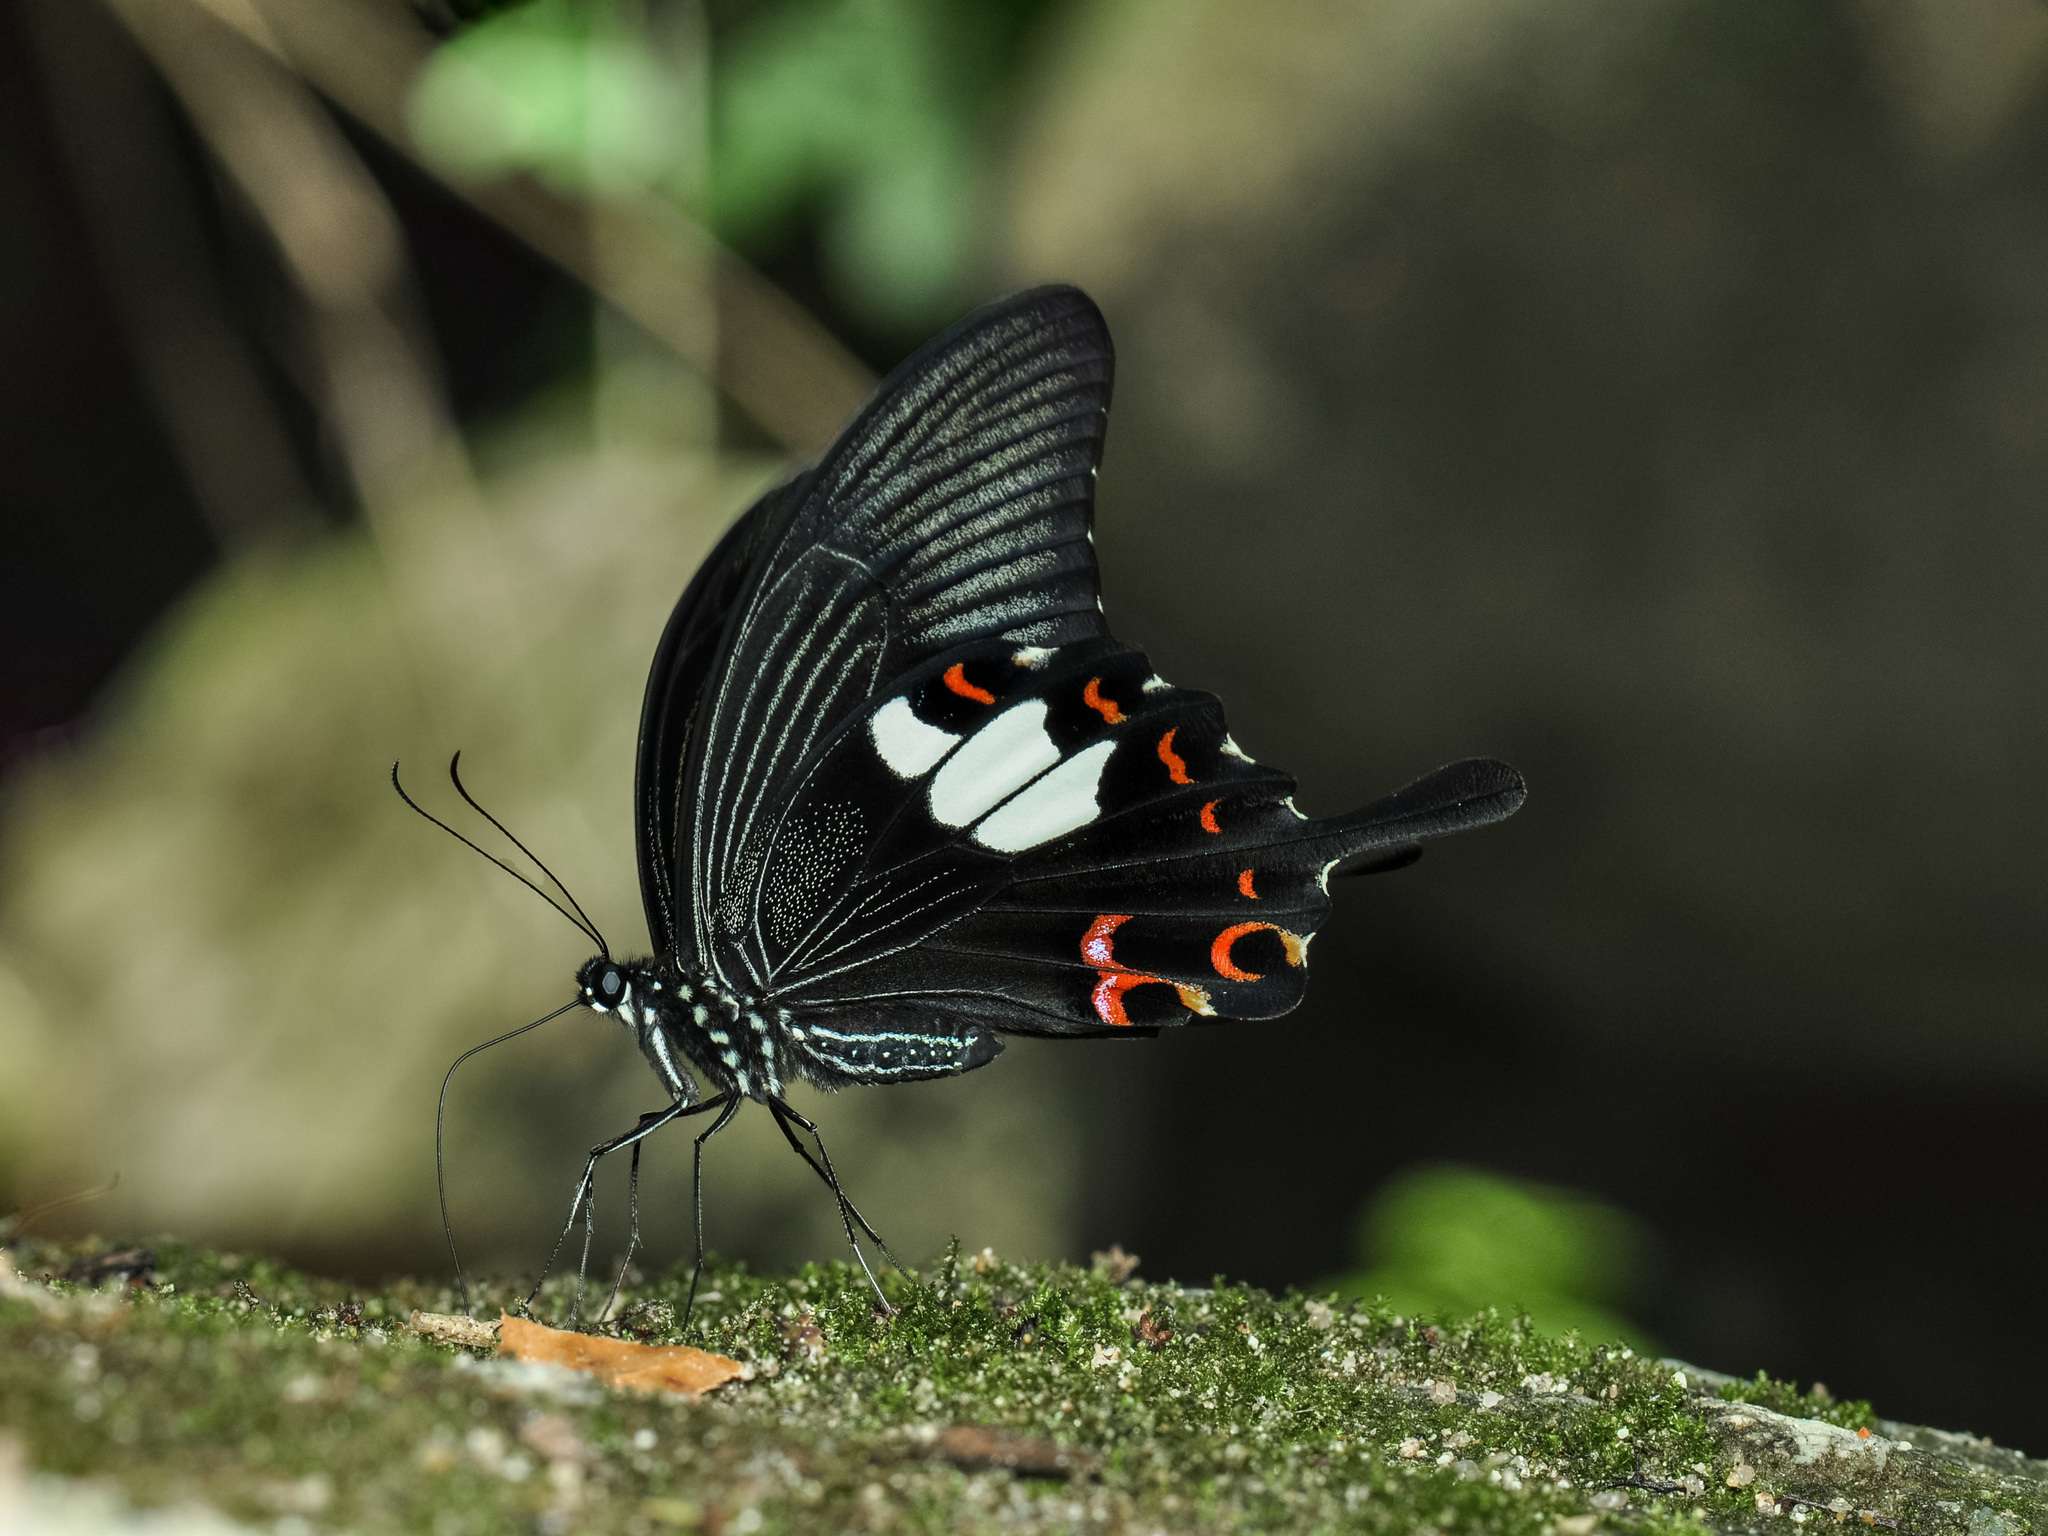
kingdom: Animalia
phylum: Arthropoda
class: Insecta
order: Lepidoptera
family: Papilionidae
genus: Papilio
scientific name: Papilio helenus
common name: Red helen
